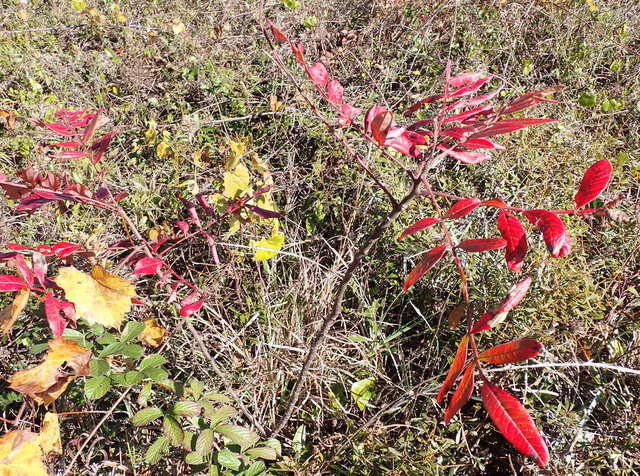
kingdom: Plantae
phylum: Tracheophyta
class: Magnoliopsida
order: Sapindales
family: Anacardiaceae
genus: Rhus
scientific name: Rhus copallina
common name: Shining sumac
